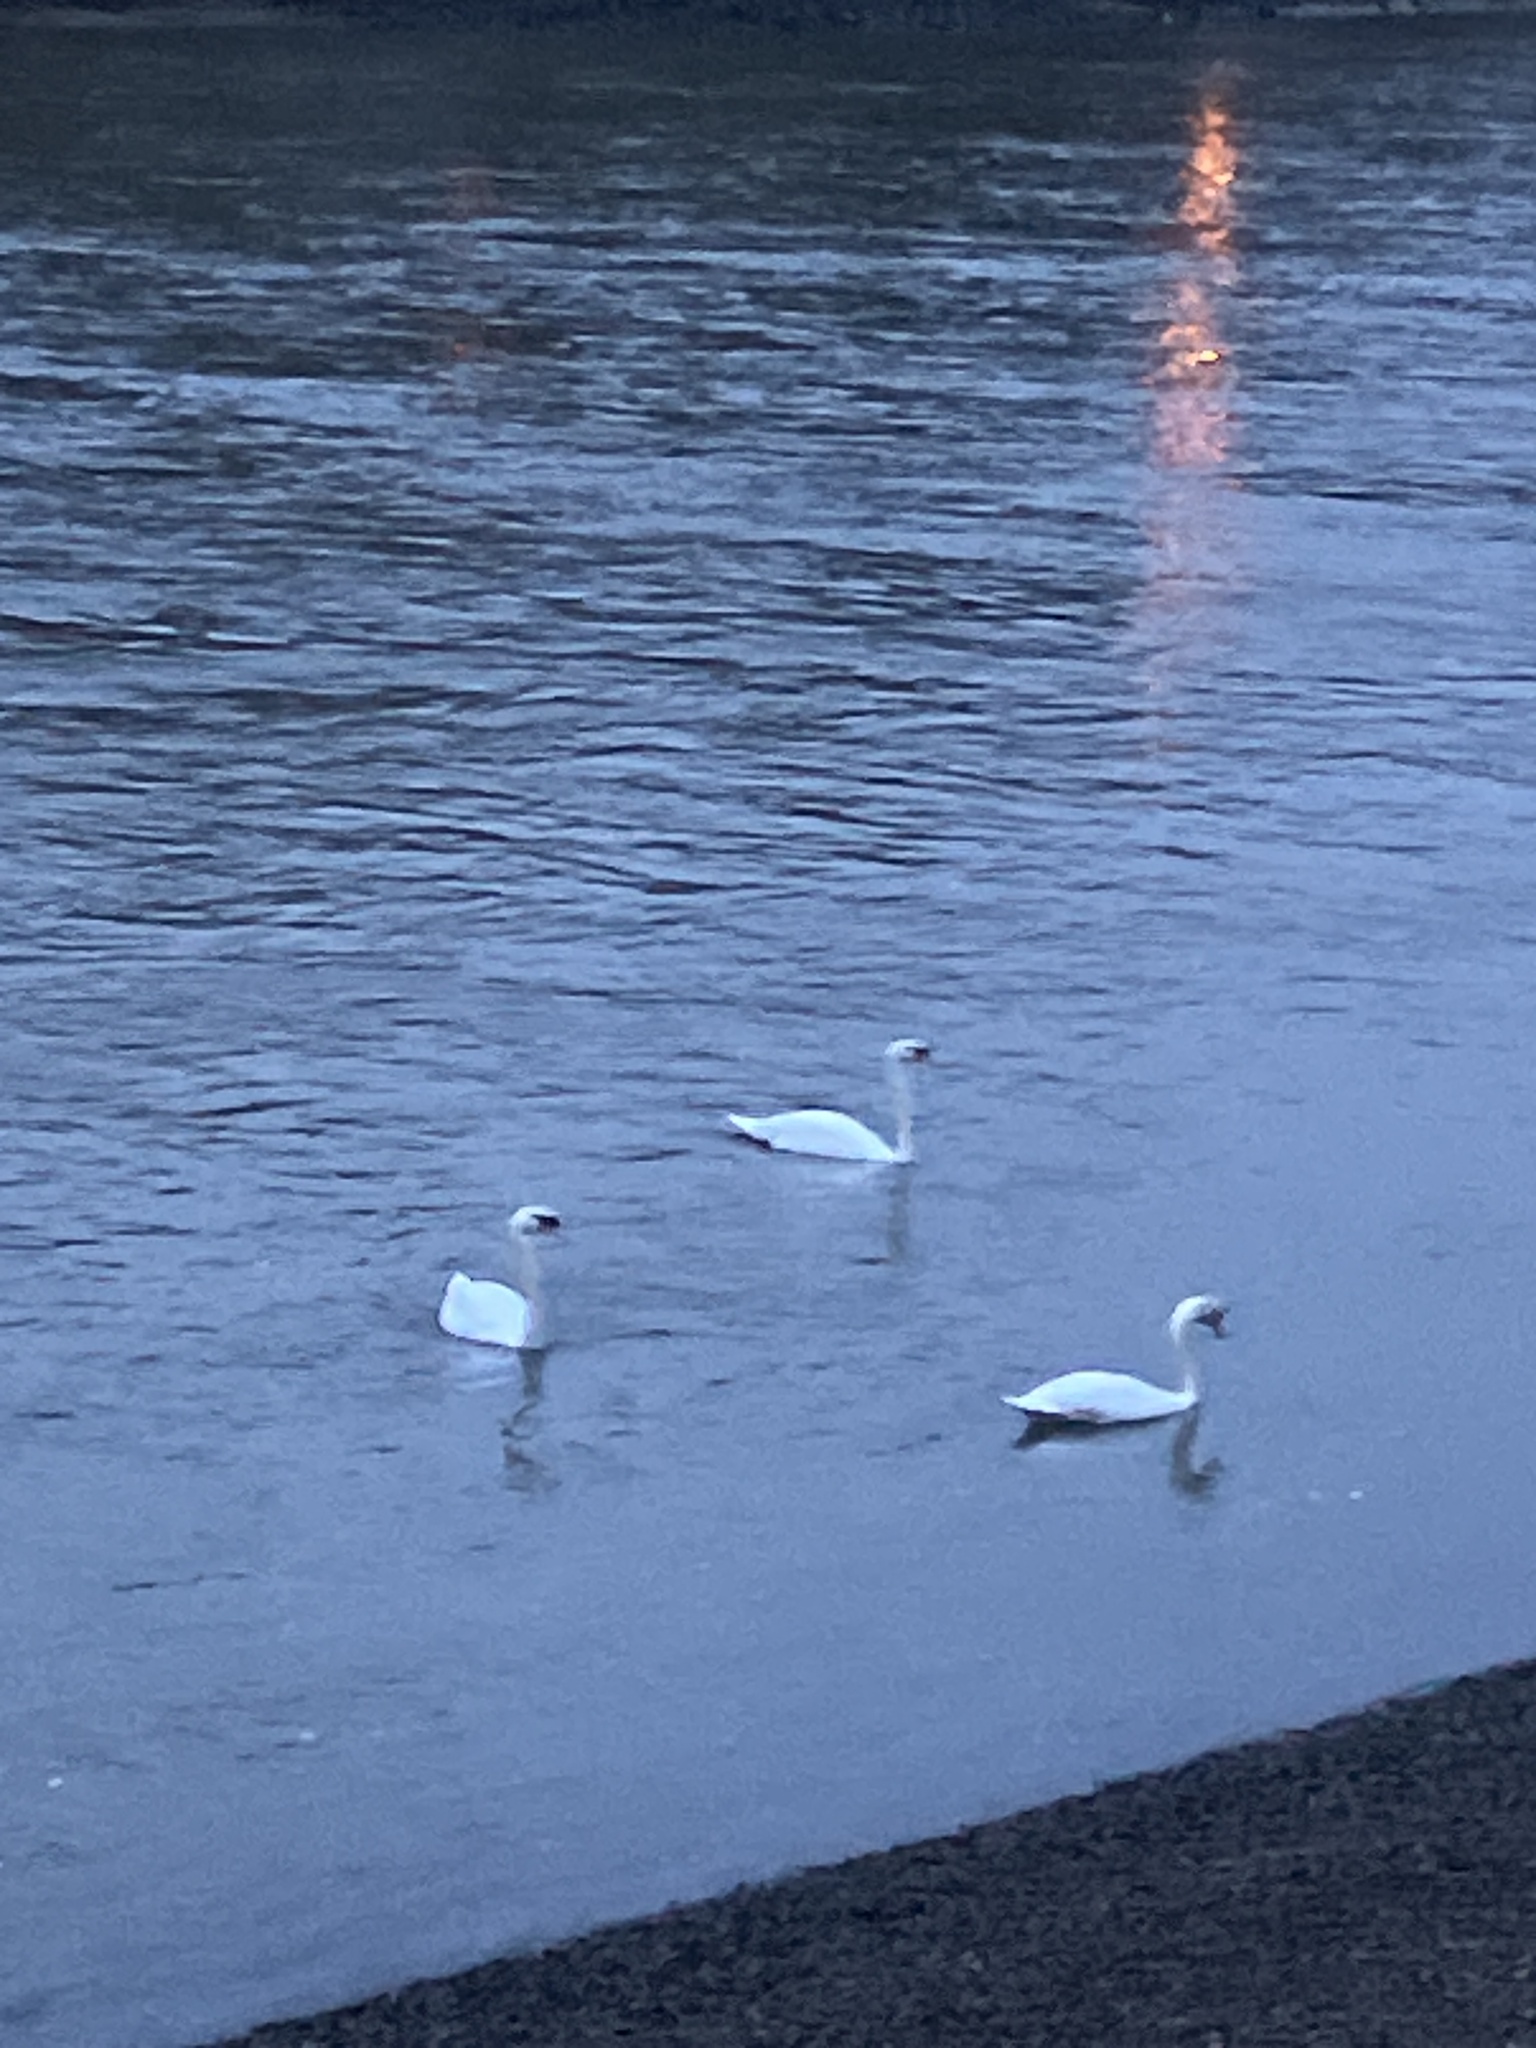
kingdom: Animalia
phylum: Chordata
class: Aves
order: Anseriformes
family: Anatidae
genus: Cygnus
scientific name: Cygnus olor
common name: Mute swan
